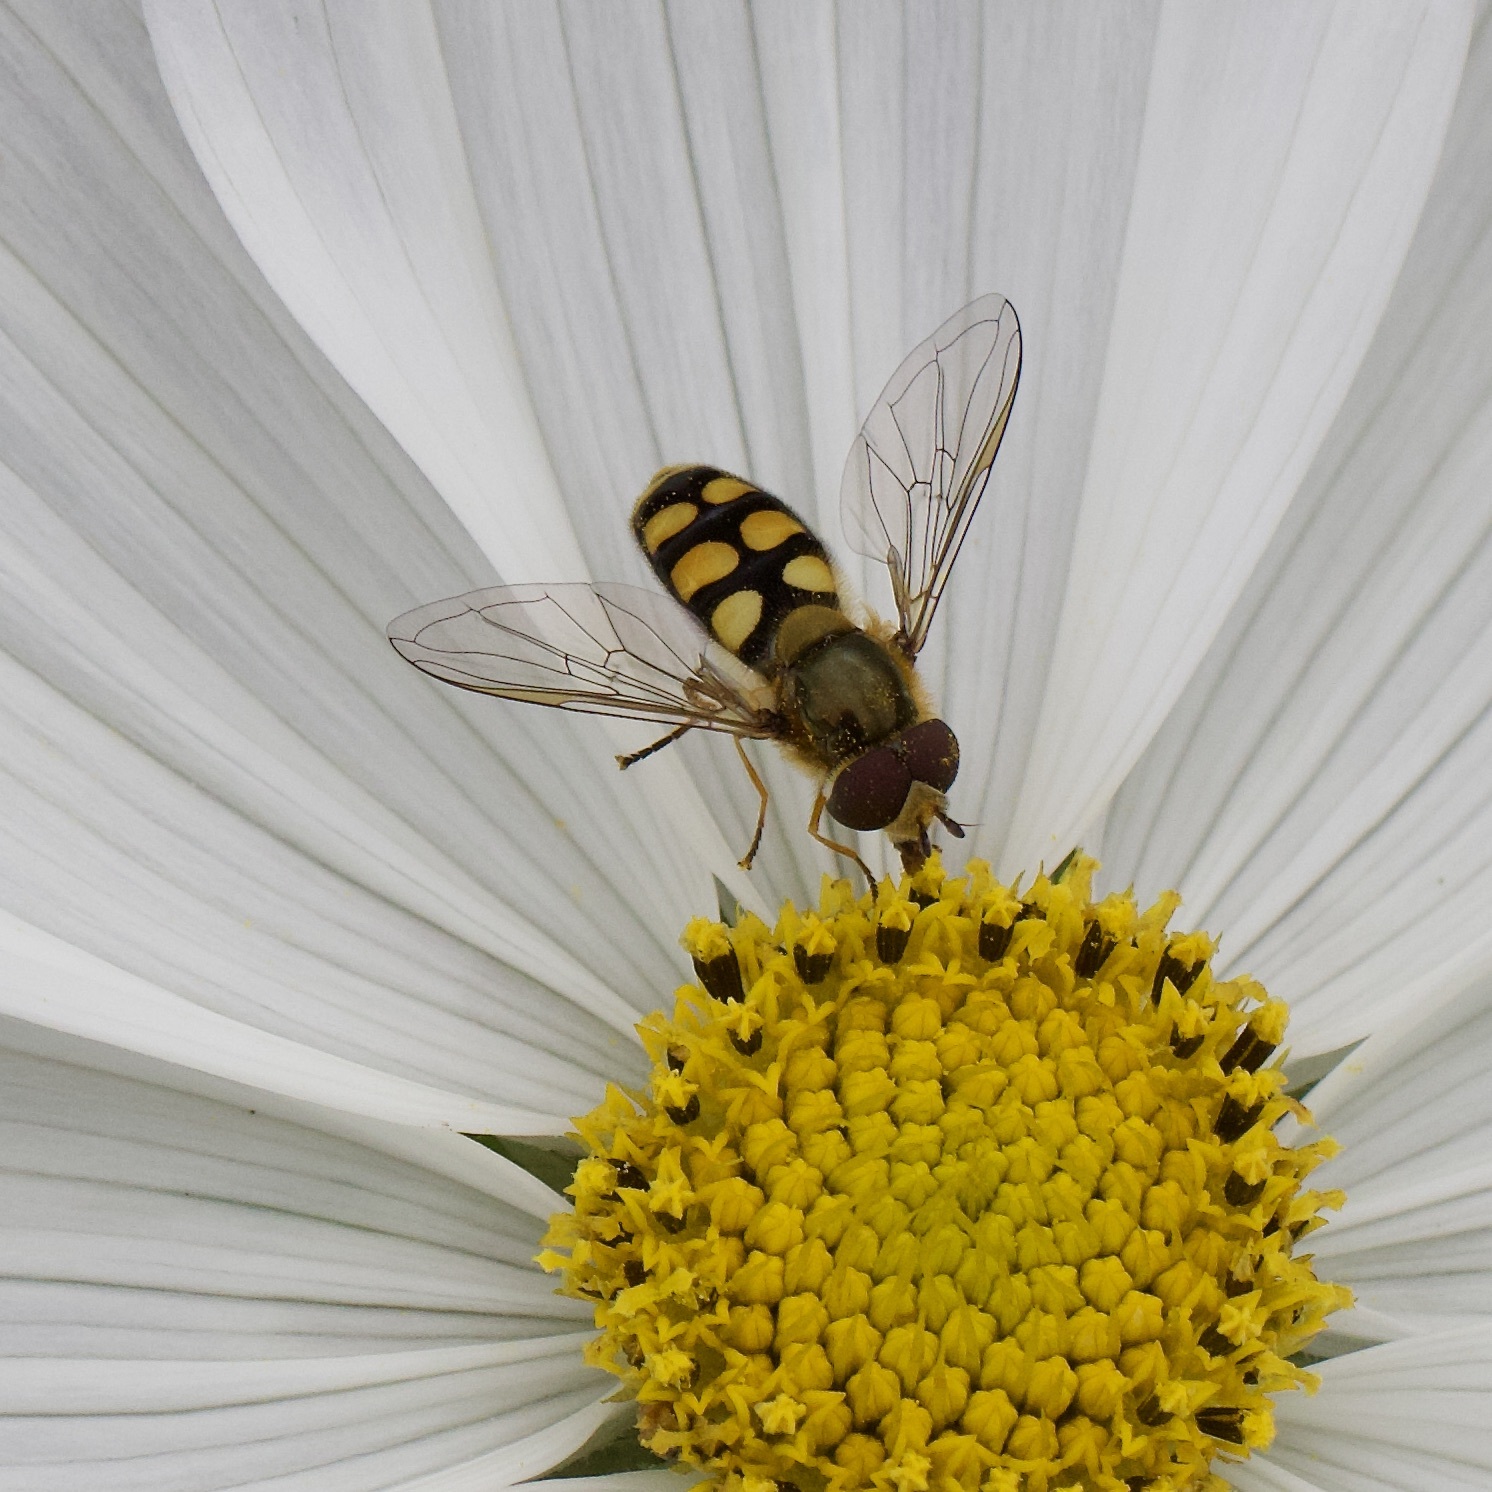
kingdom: Animalia
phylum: Arthropoda
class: Insecta
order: Diptera
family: Syrphidae
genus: Eupeodes
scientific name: Eupeodes
